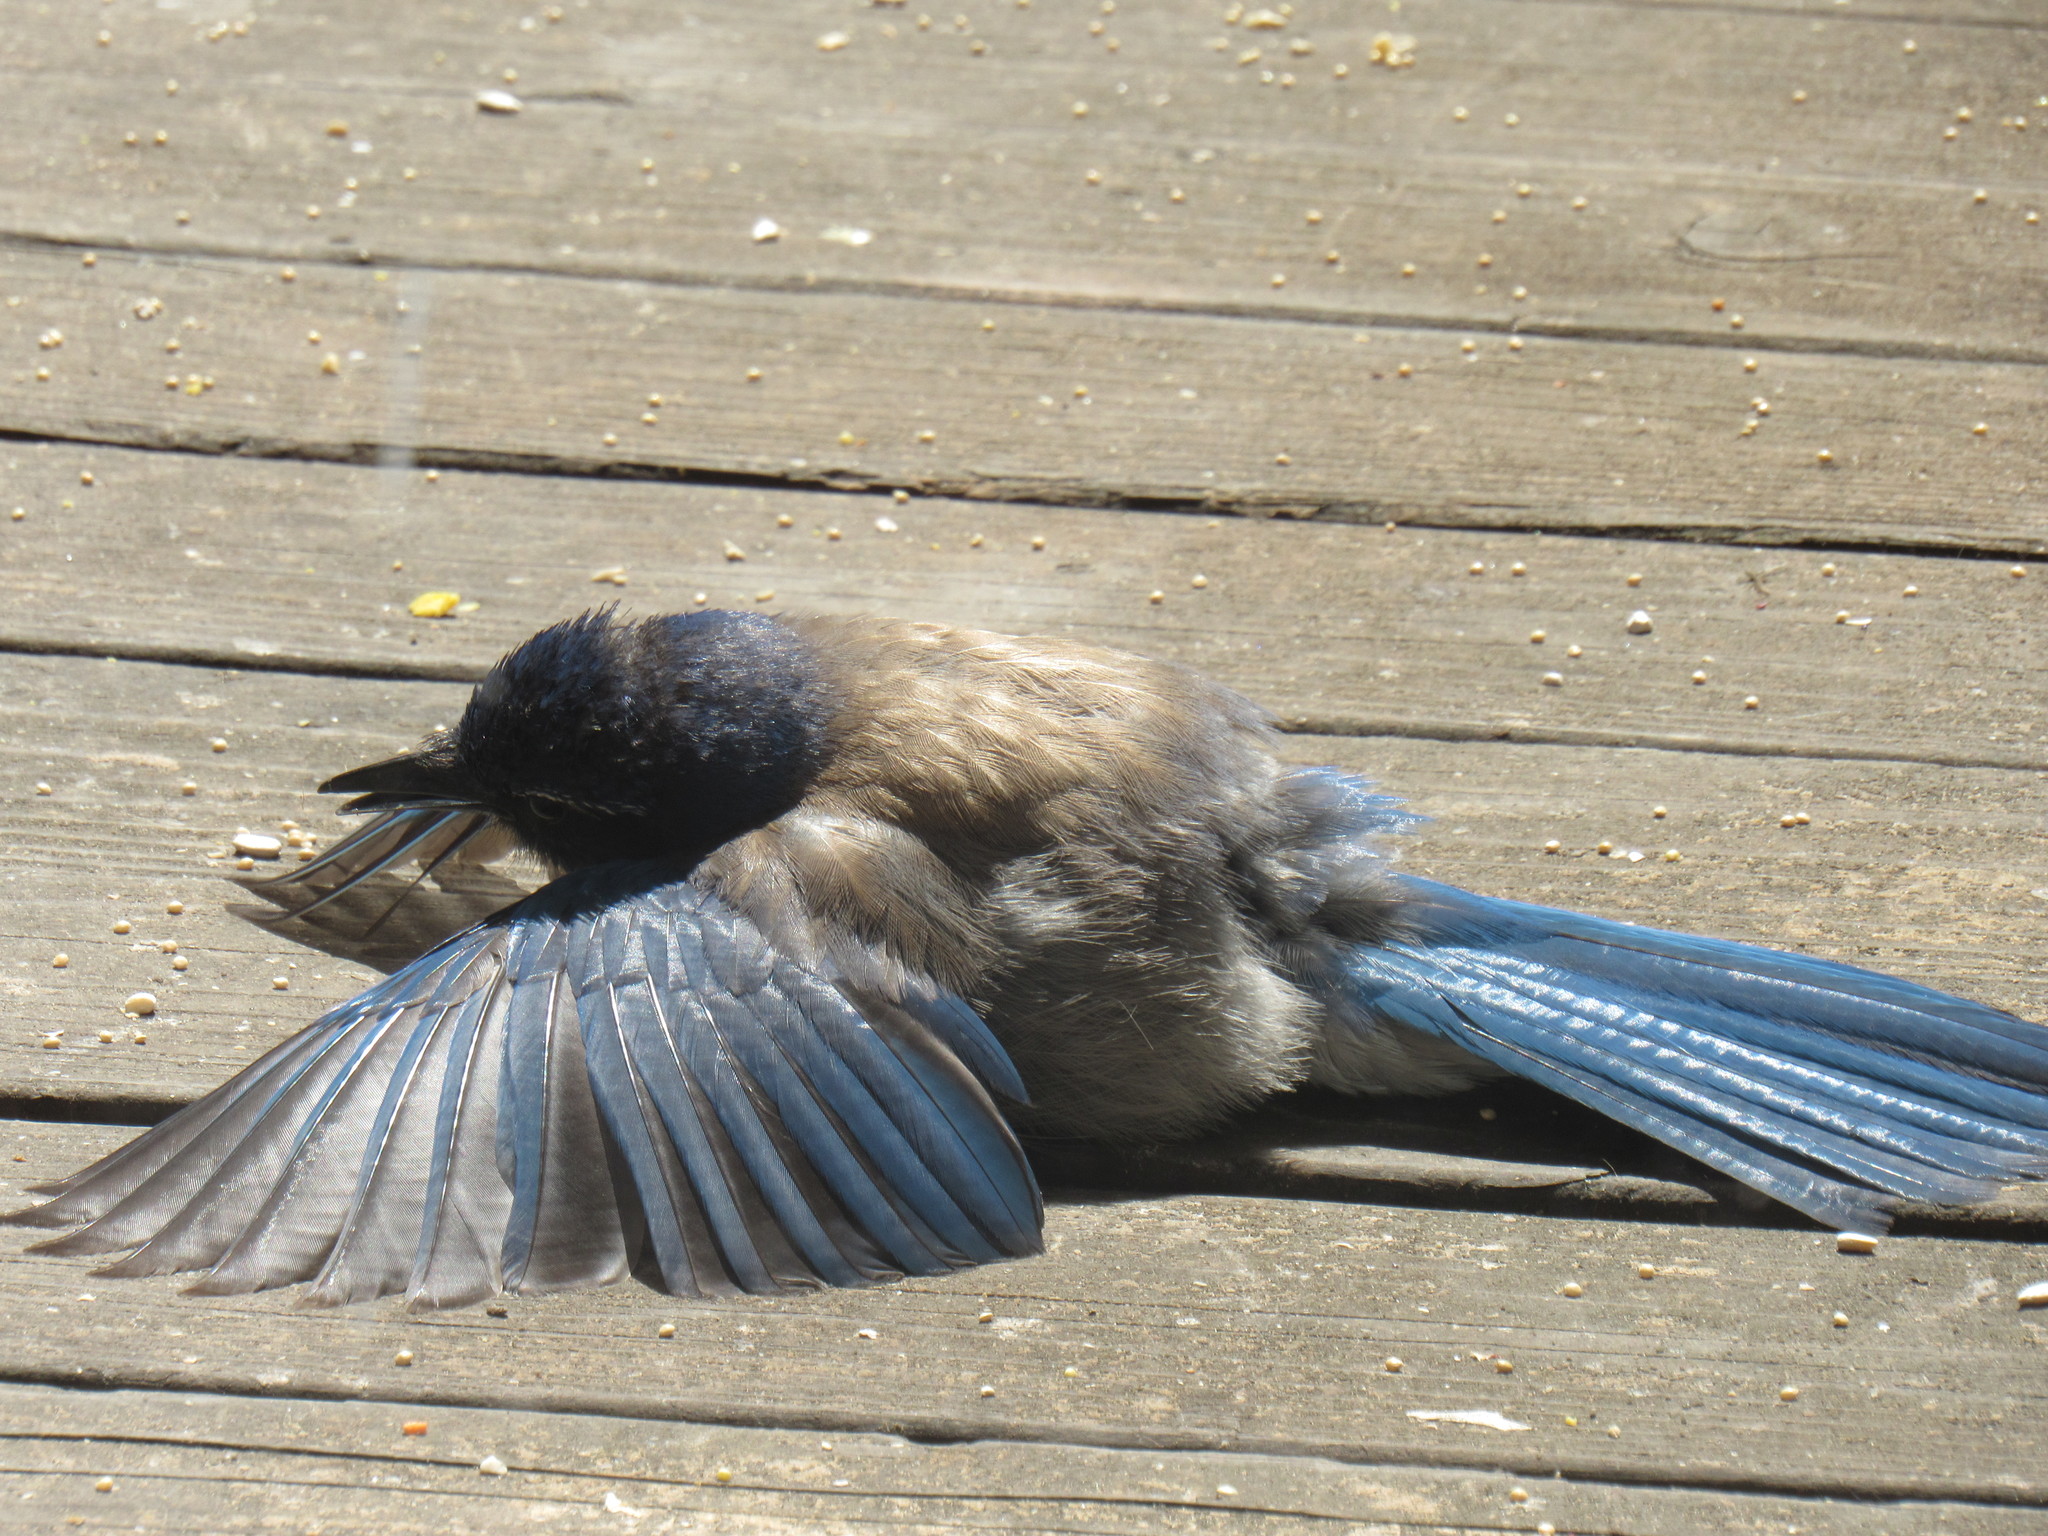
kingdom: Animalia
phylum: Chordata
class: Aves
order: Passeriformes
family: Corvidae
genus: Aphelocoma
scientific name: Aphelocoma californica
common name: California scrub-jay
